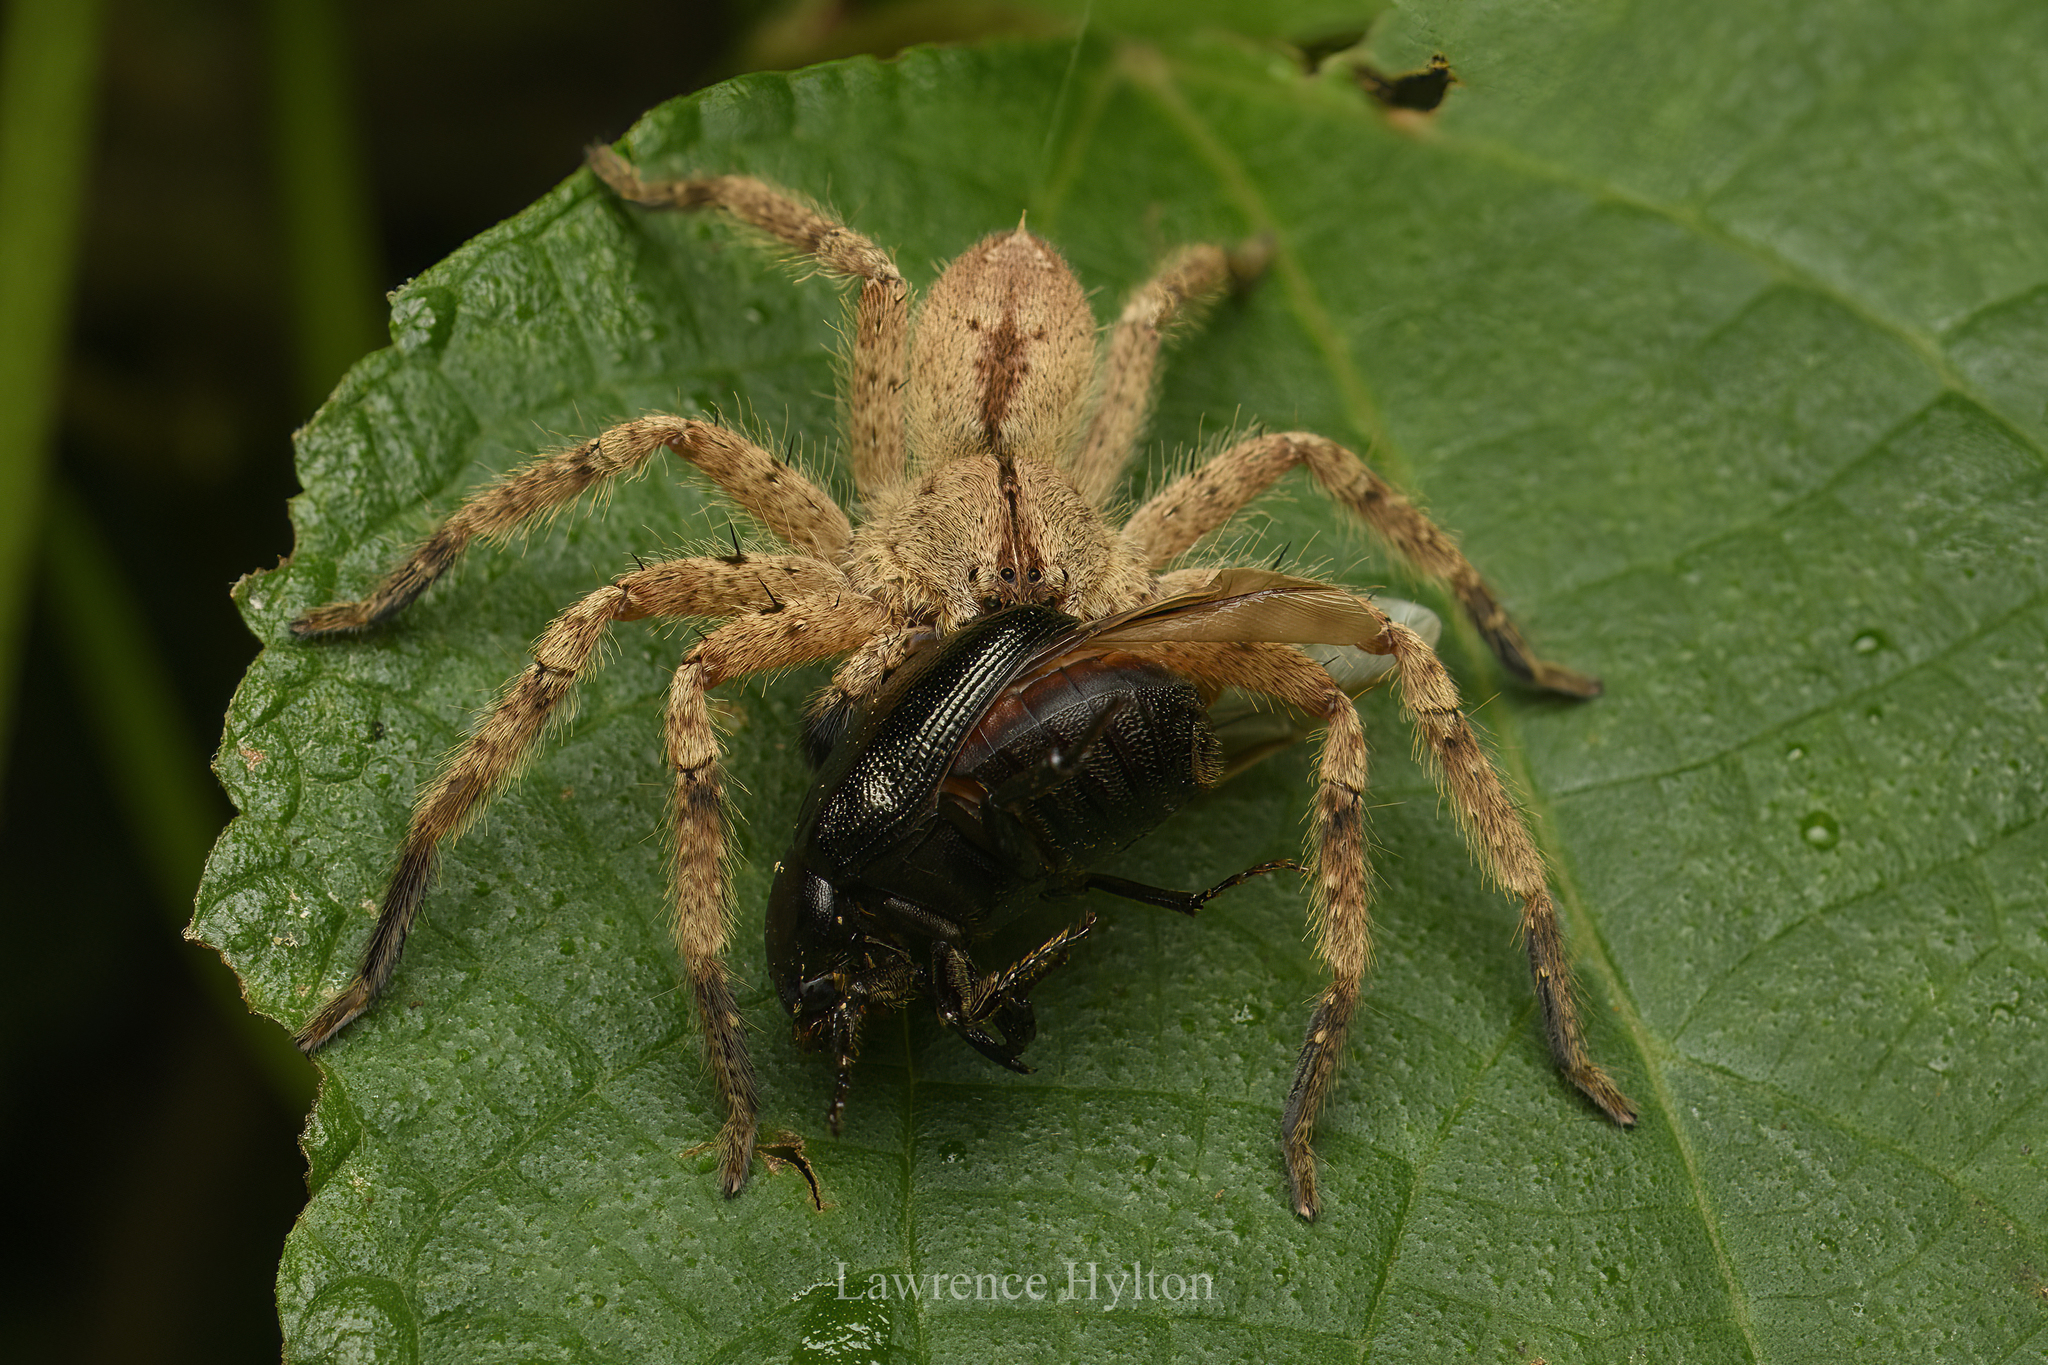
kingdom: Animalia
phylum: Arthropoda
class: Arachnida
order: Araneae
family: Sparassidae
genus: Heteropoda
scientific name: Heteropoda pingtungensis
